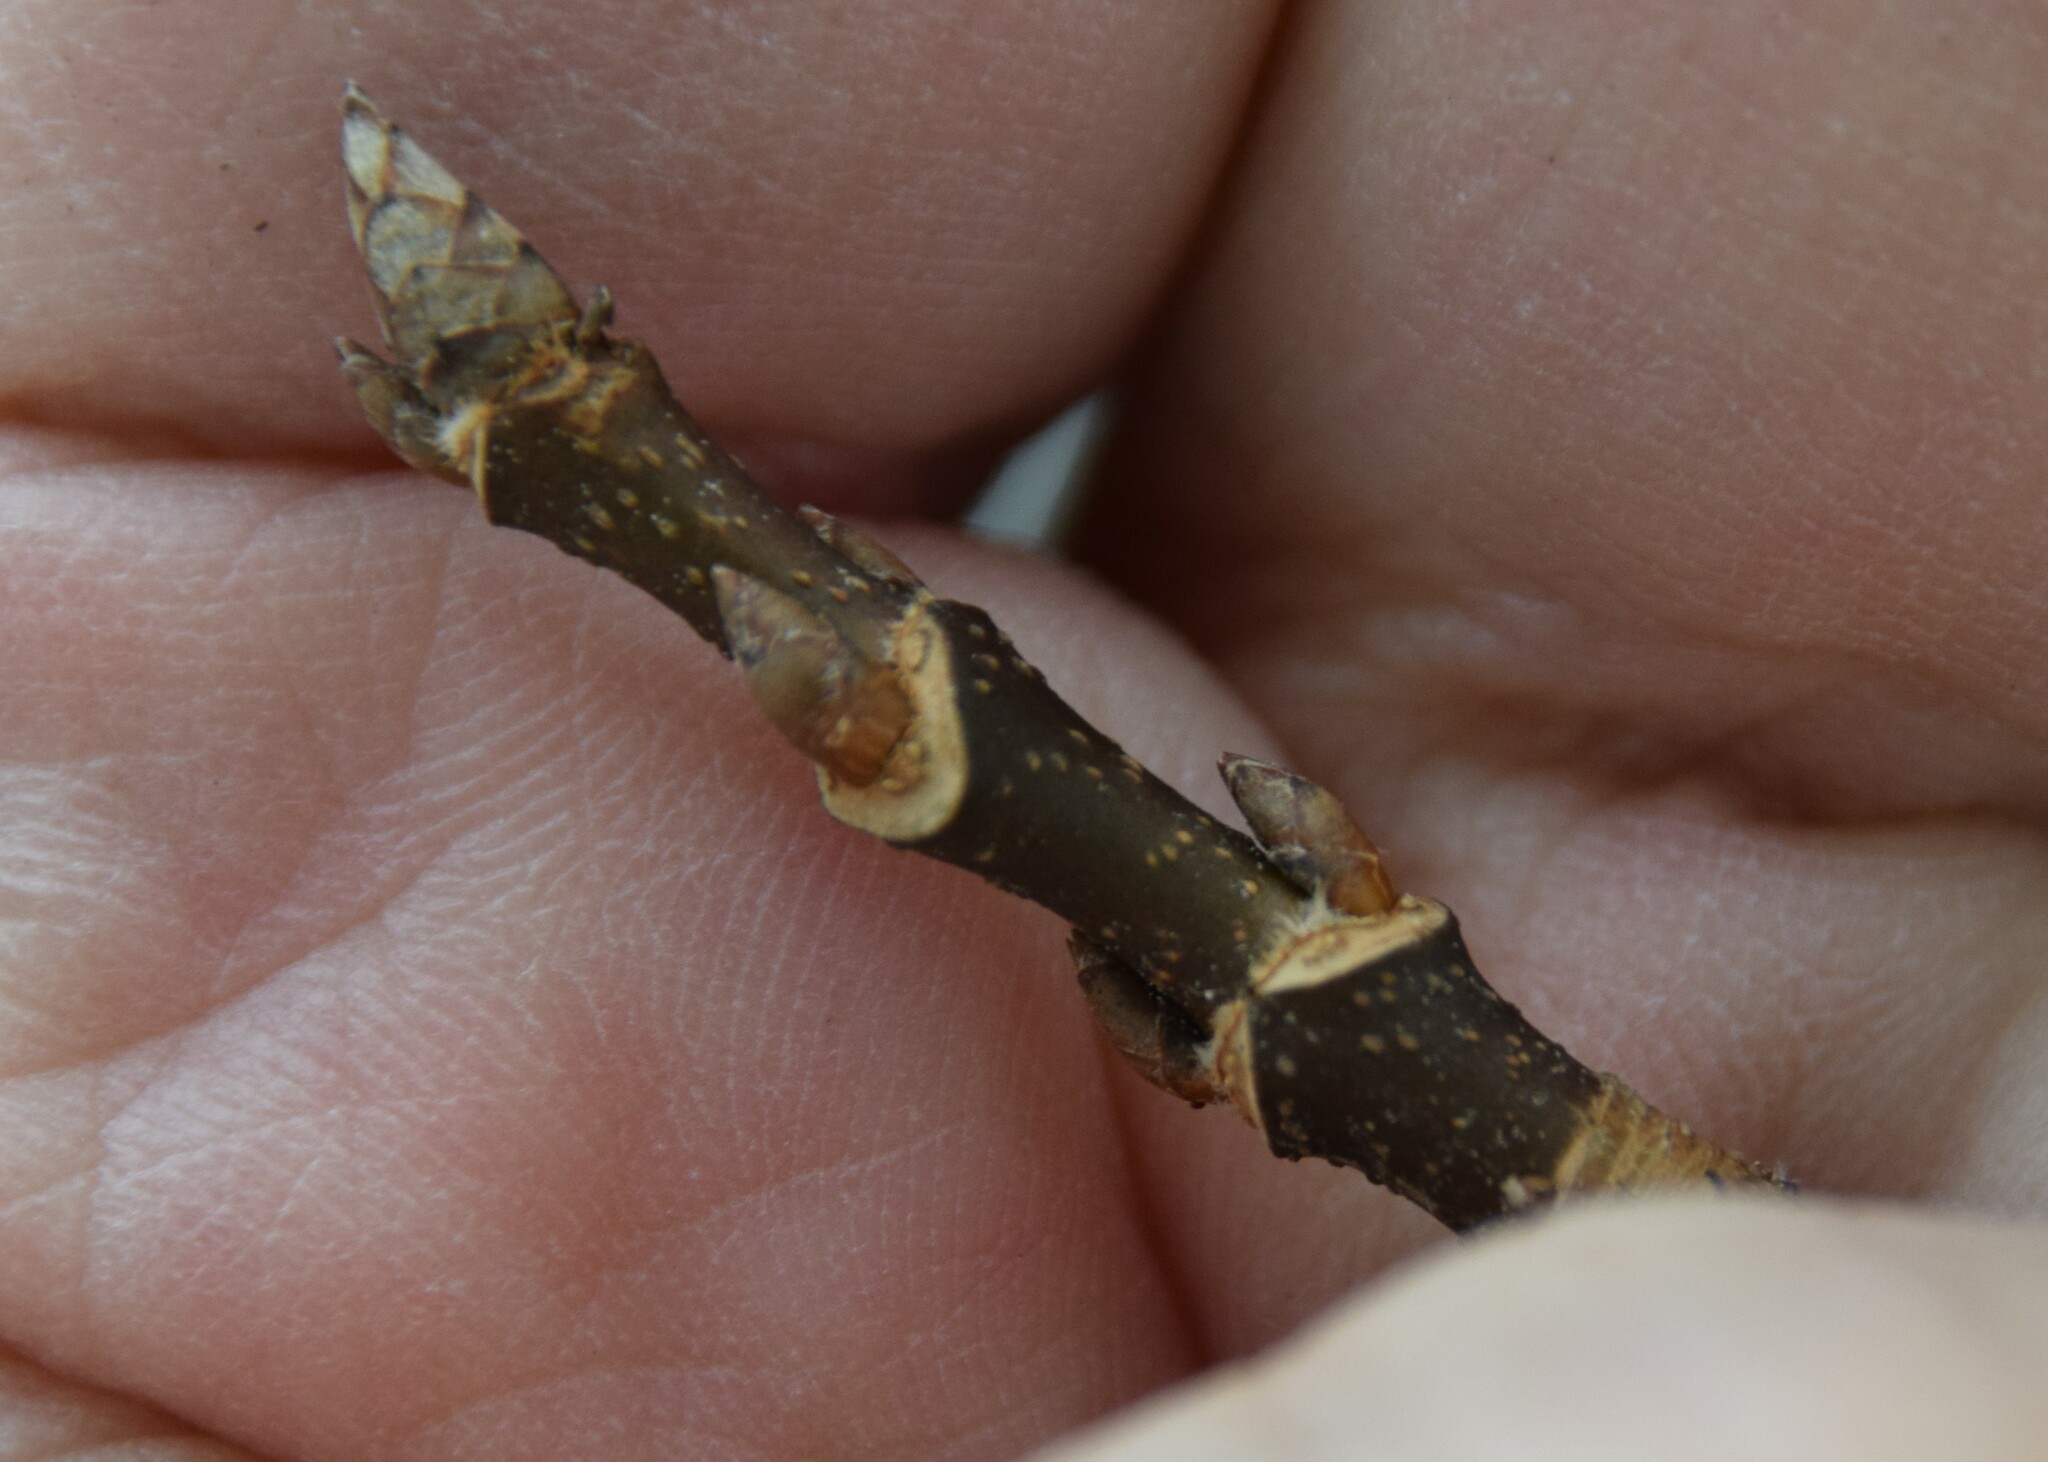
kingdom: Plantae
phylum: Tracheophyta
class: Magnoliopsida
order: Sapindales
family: Sapindaceae
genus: Acer
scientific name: Acer saccharum
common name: Sugar maple
